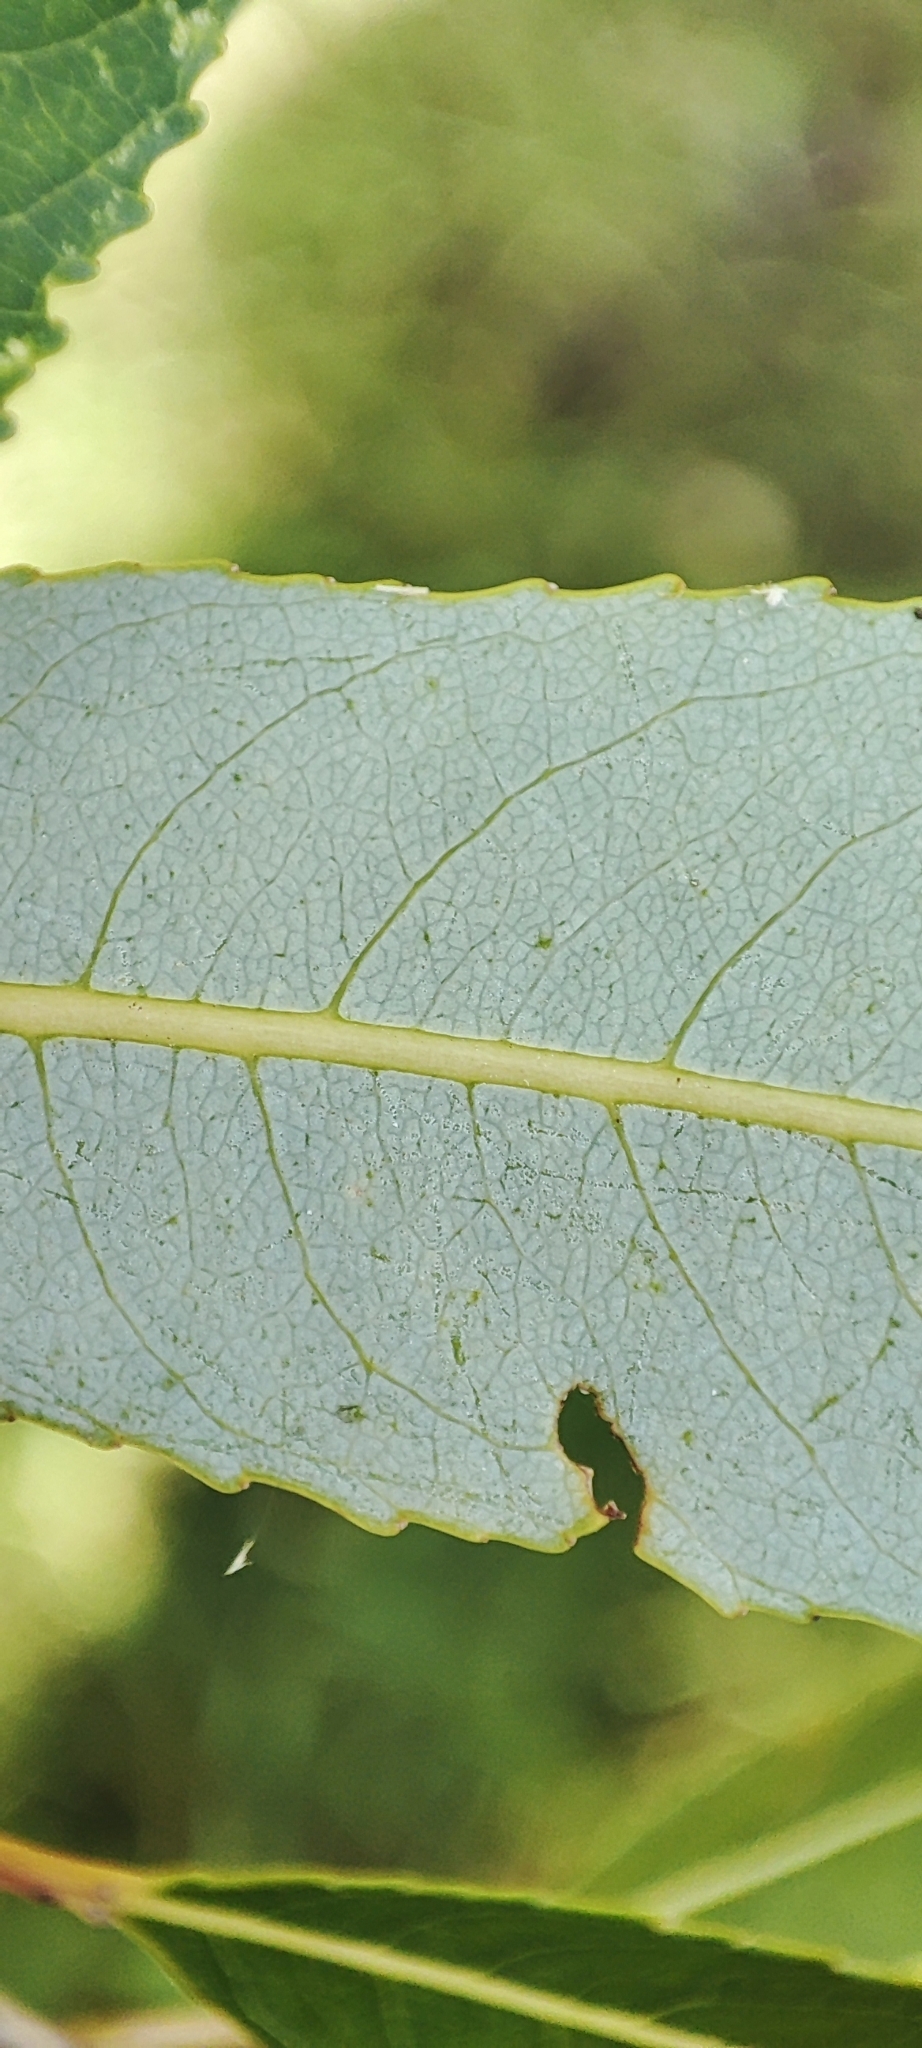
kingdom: Plantae
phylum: Tracheophyta
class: Magnoliopsida
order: Malpighiales
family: Salicaceae
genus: Salix
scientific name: Salix triandra
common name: Almond willow
